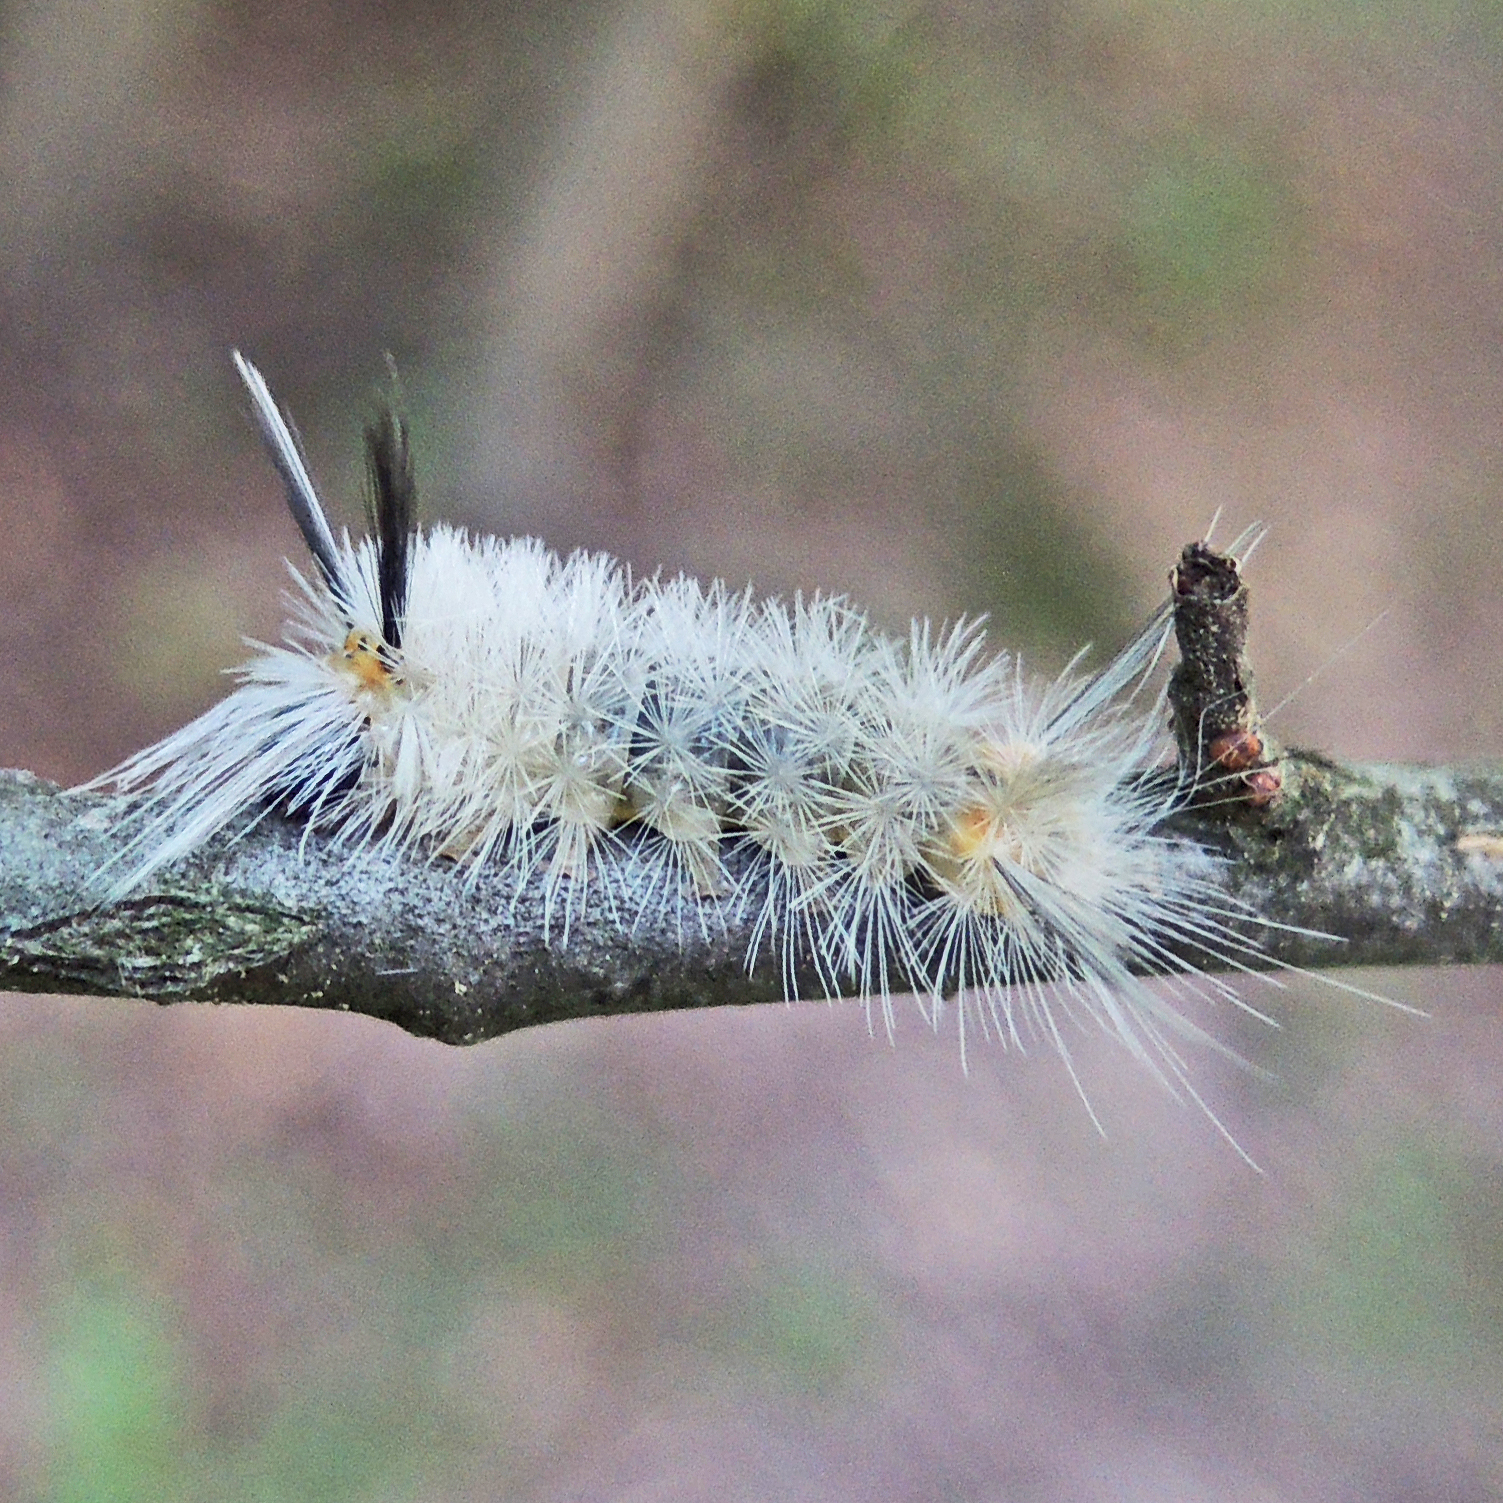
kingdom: Animalia
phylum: Arthropoda
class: Insecta
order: Lepidoptera
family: Erebidae
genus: Halysidota
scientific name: Halysidota tessellaris
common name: Banded tussock moth
